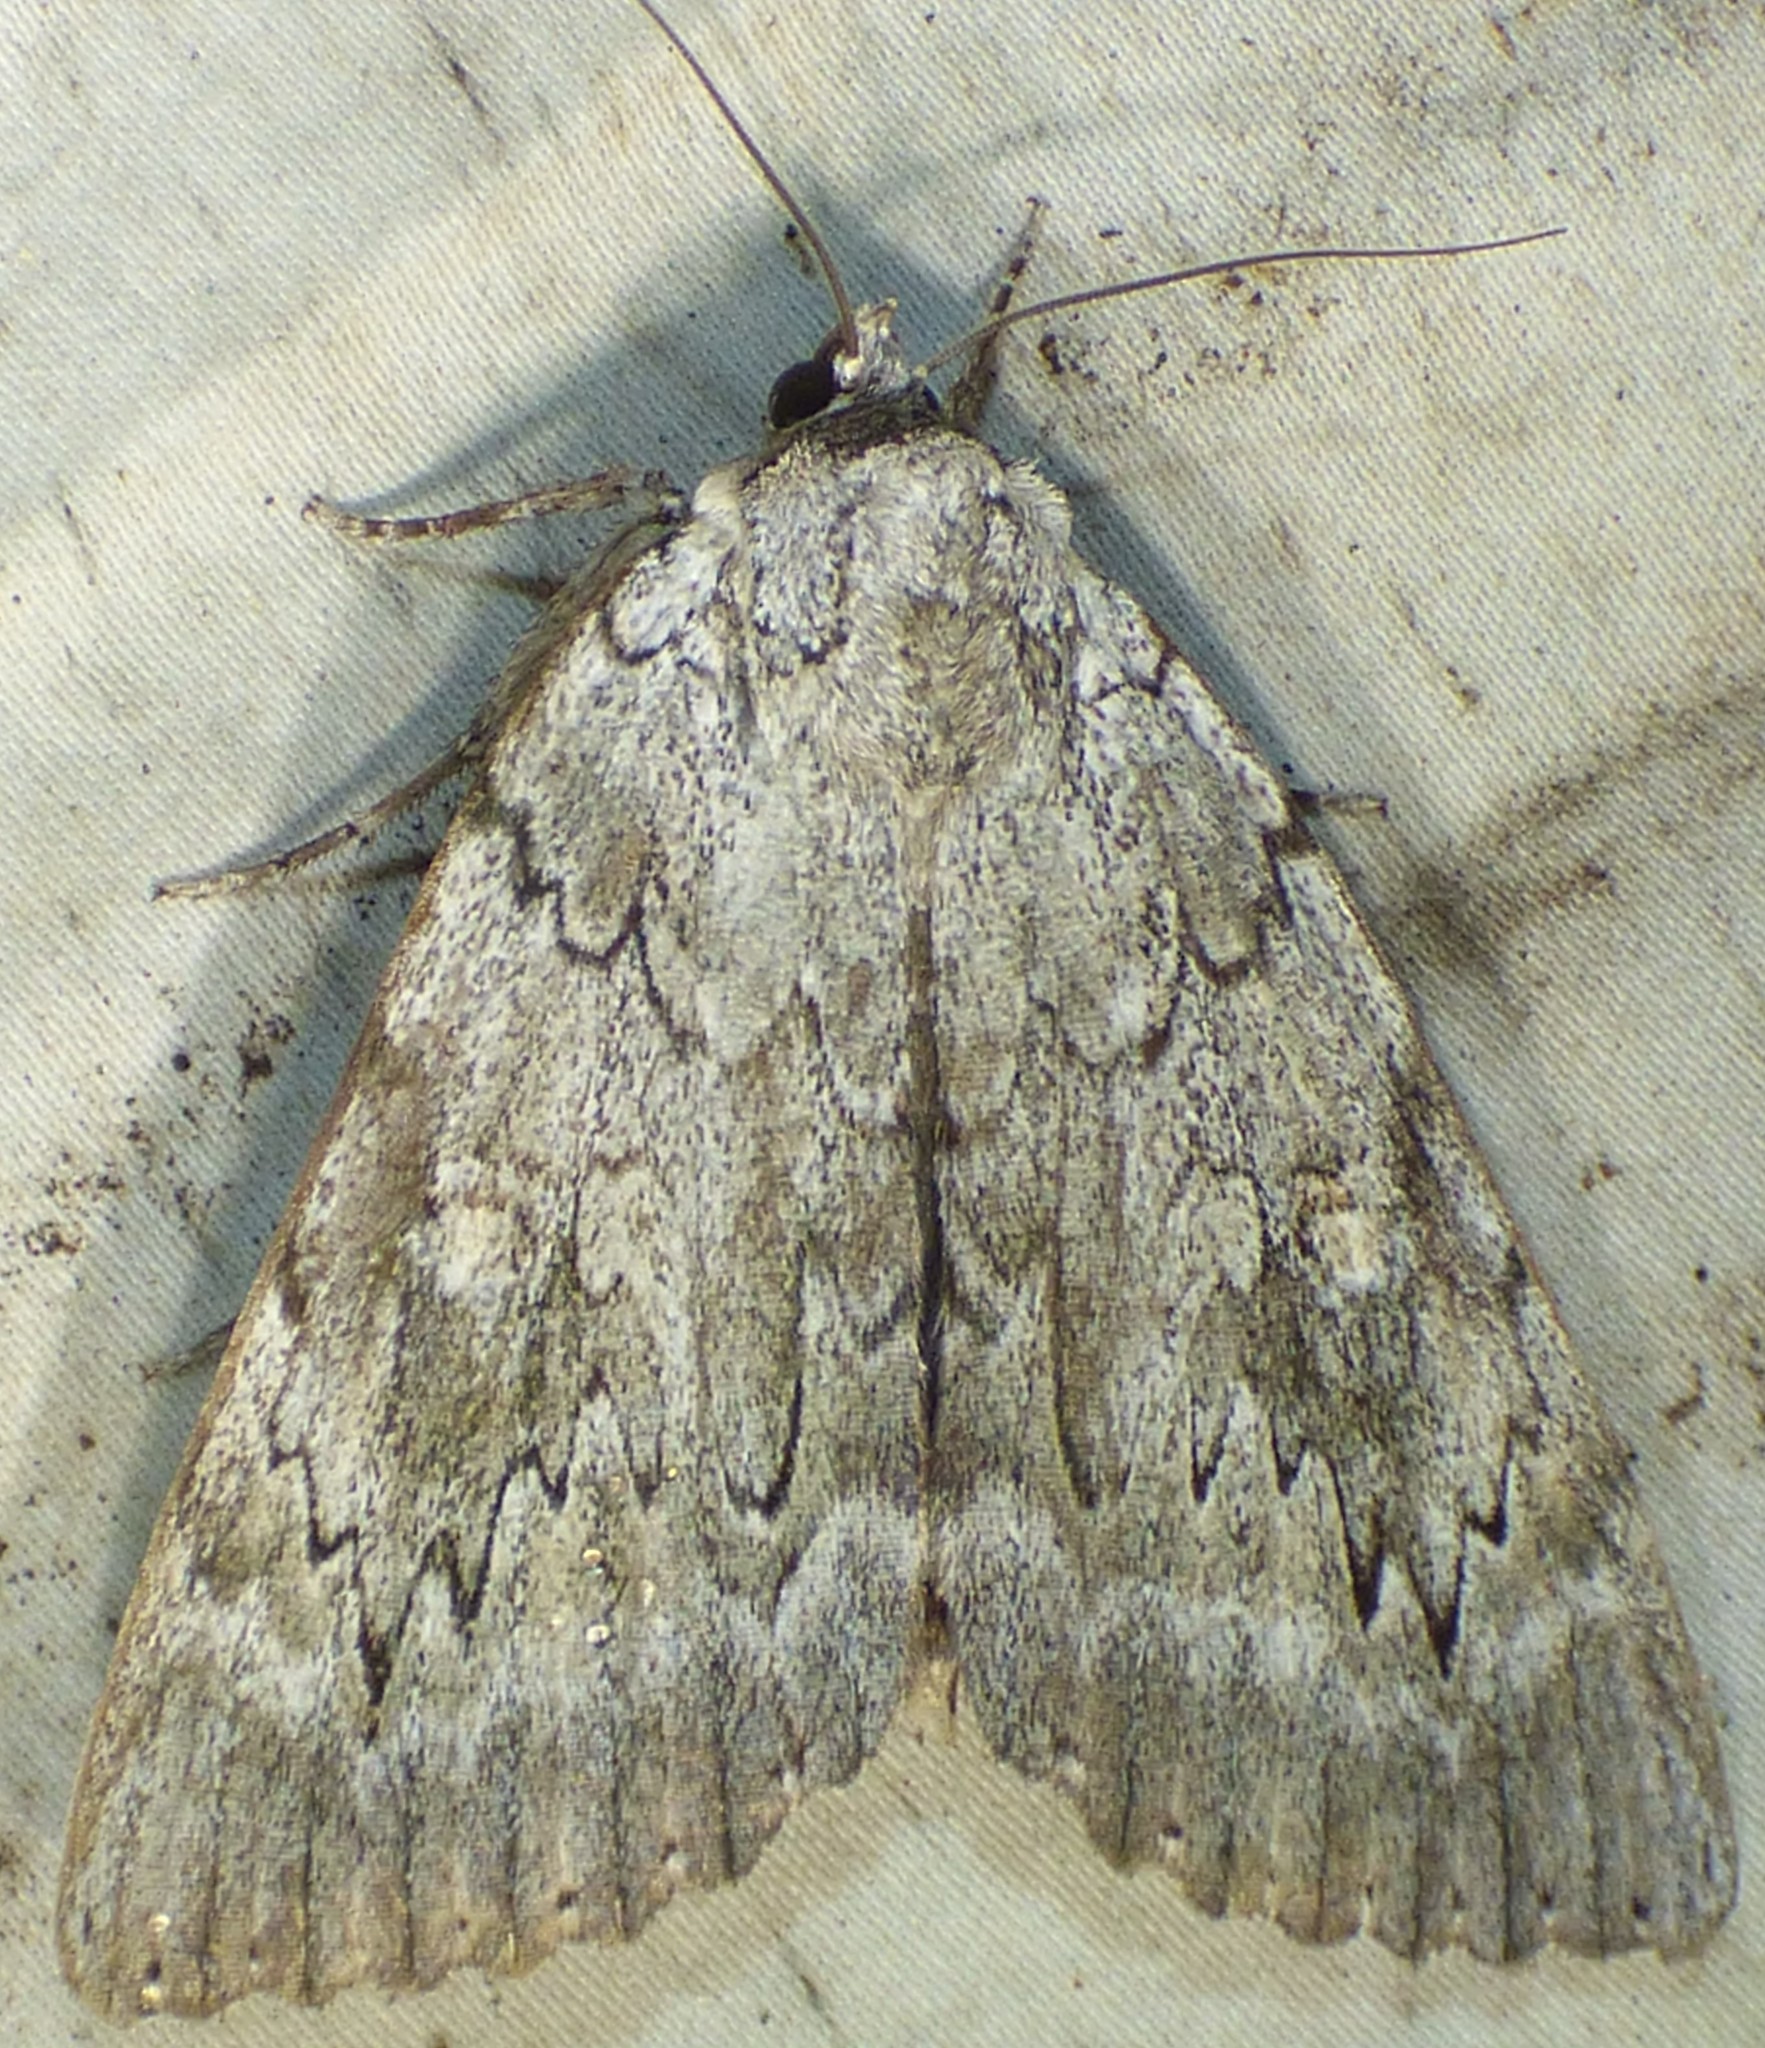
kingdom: Animalia
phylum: Arthropoda
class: Insecta
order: Lepidoptera
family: Erebidae
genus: Catocala
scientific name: Catocala robinsoni
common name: Robinson's underwing
